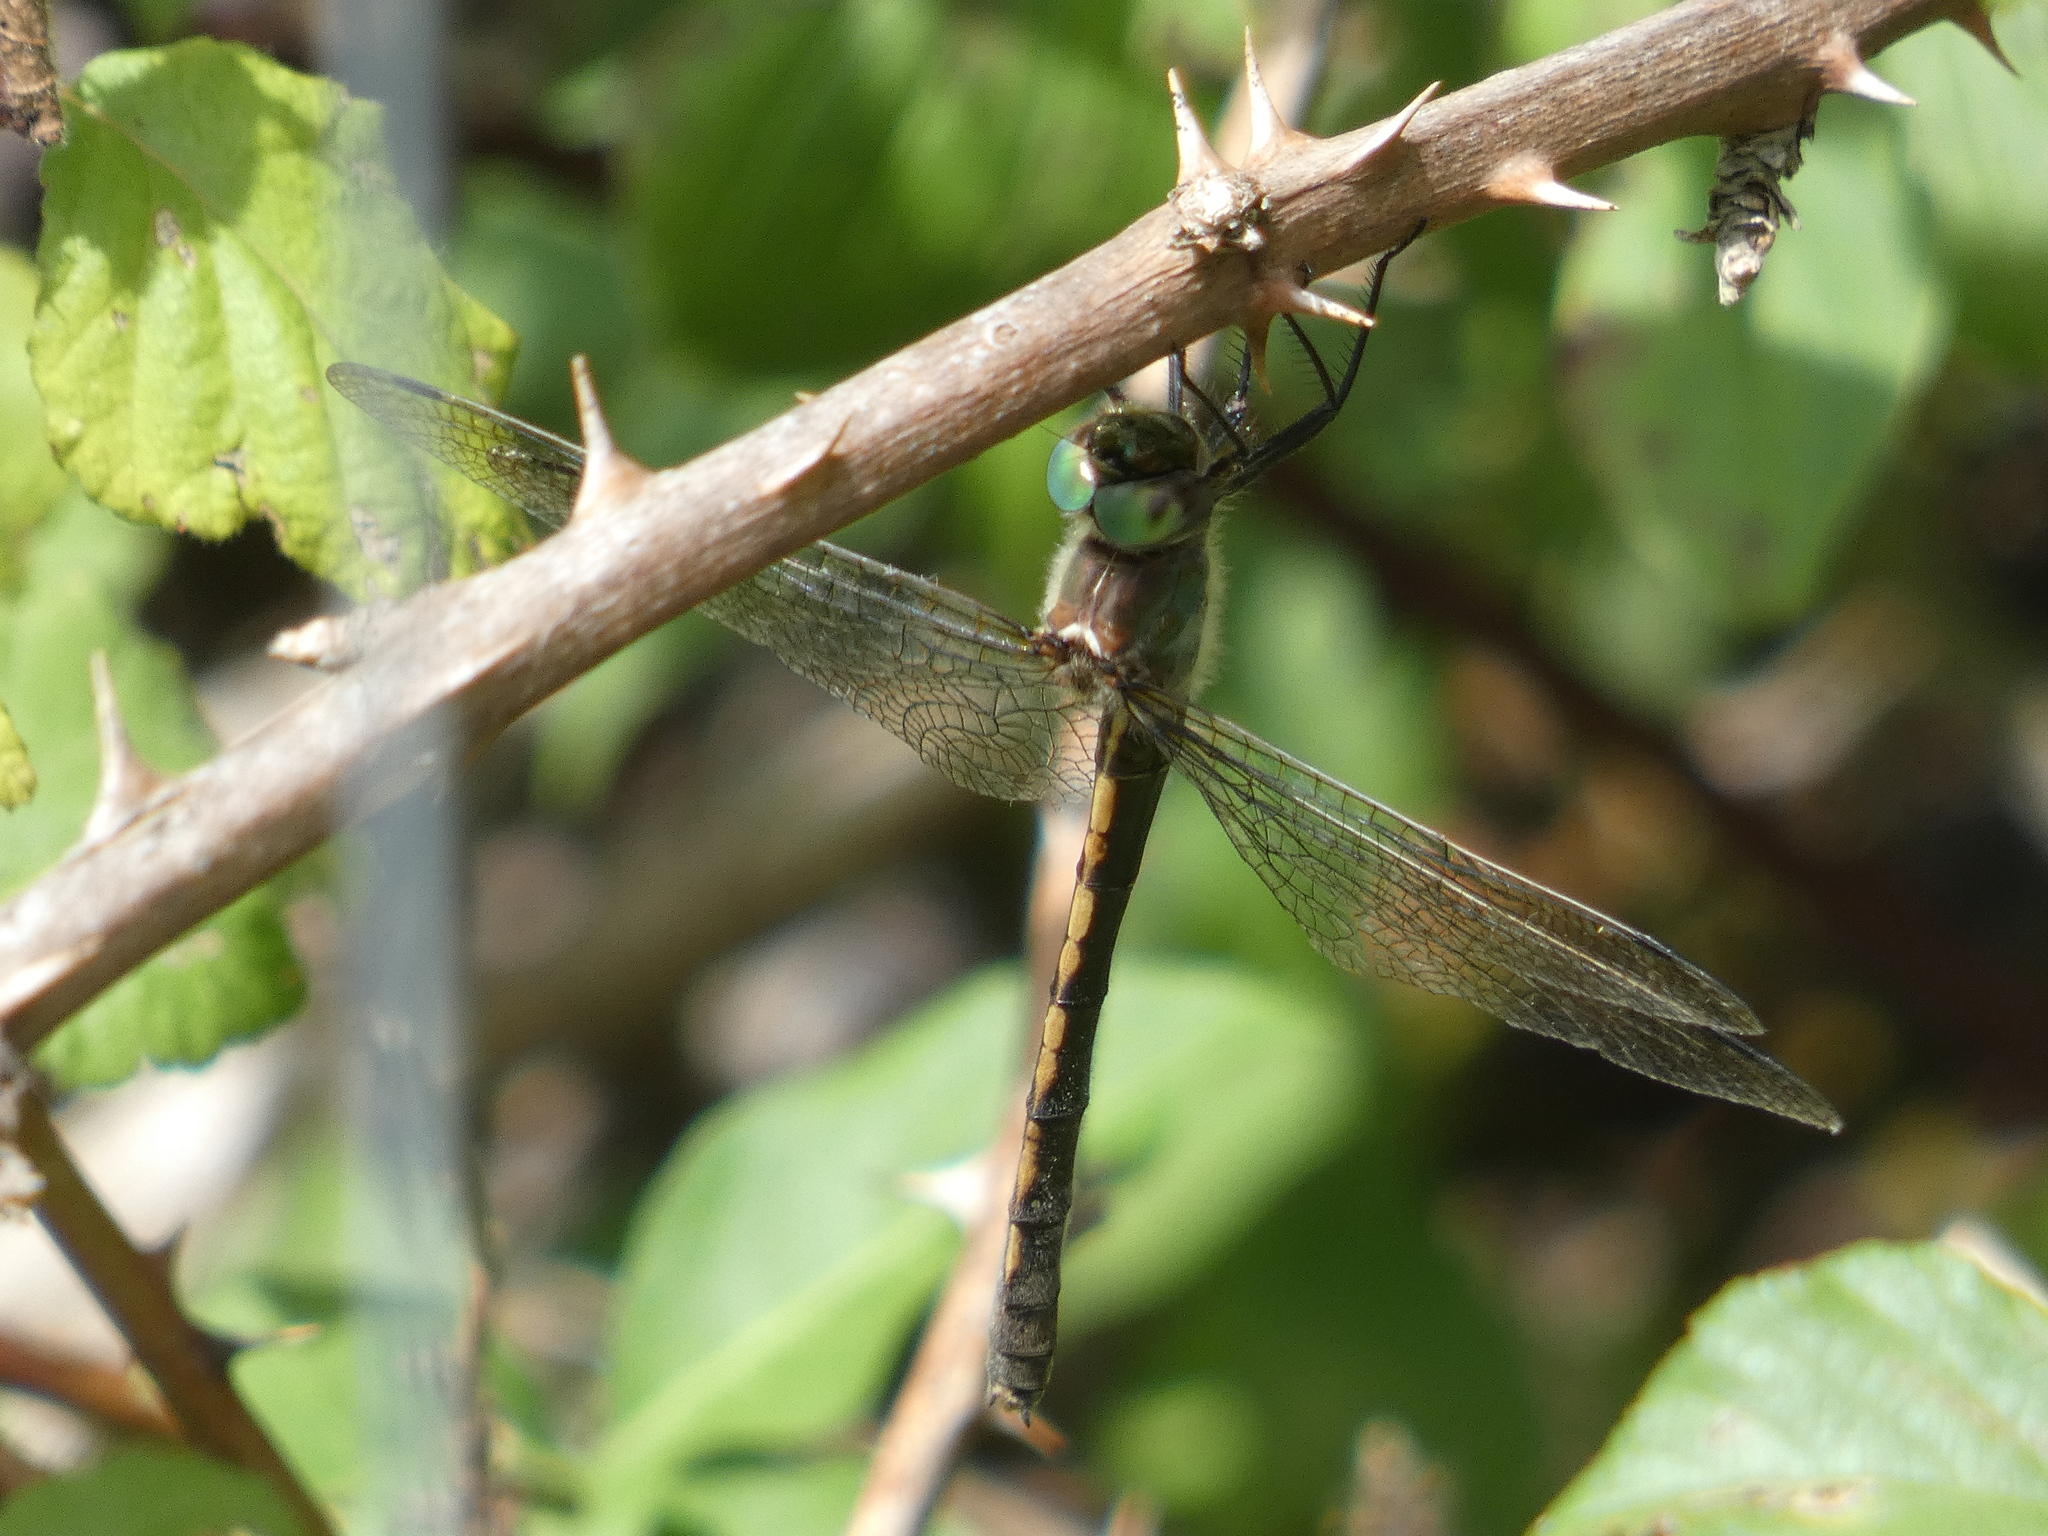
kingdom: Animalia
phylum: Arthropoda
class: Insecta
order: Odonata
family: Corduliidae
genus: Oxygastra
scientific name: Oxygastra curtisii
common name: Orange-spotted emerald
